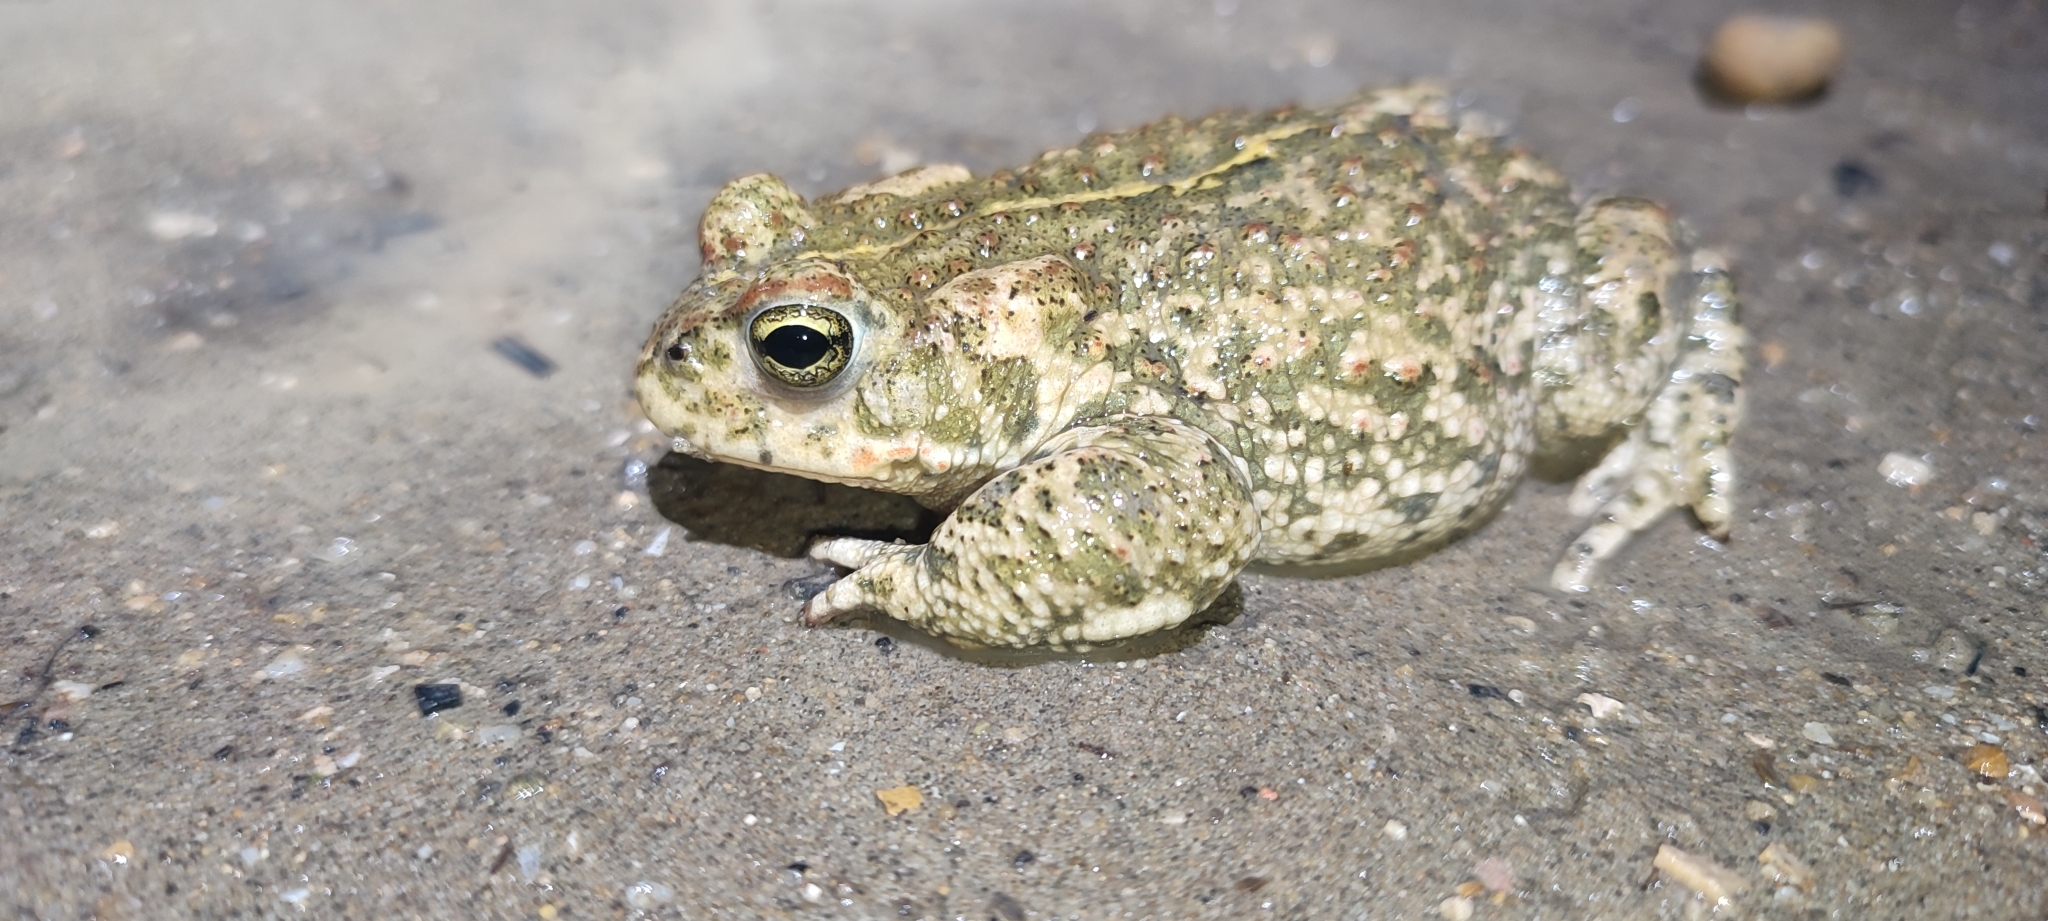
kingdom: Animalia
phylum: Chordata
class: Amphibia
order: Anura
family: Bufonidae
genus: Epidalea
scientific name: Epidalea calamita
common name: Natterjack toad
